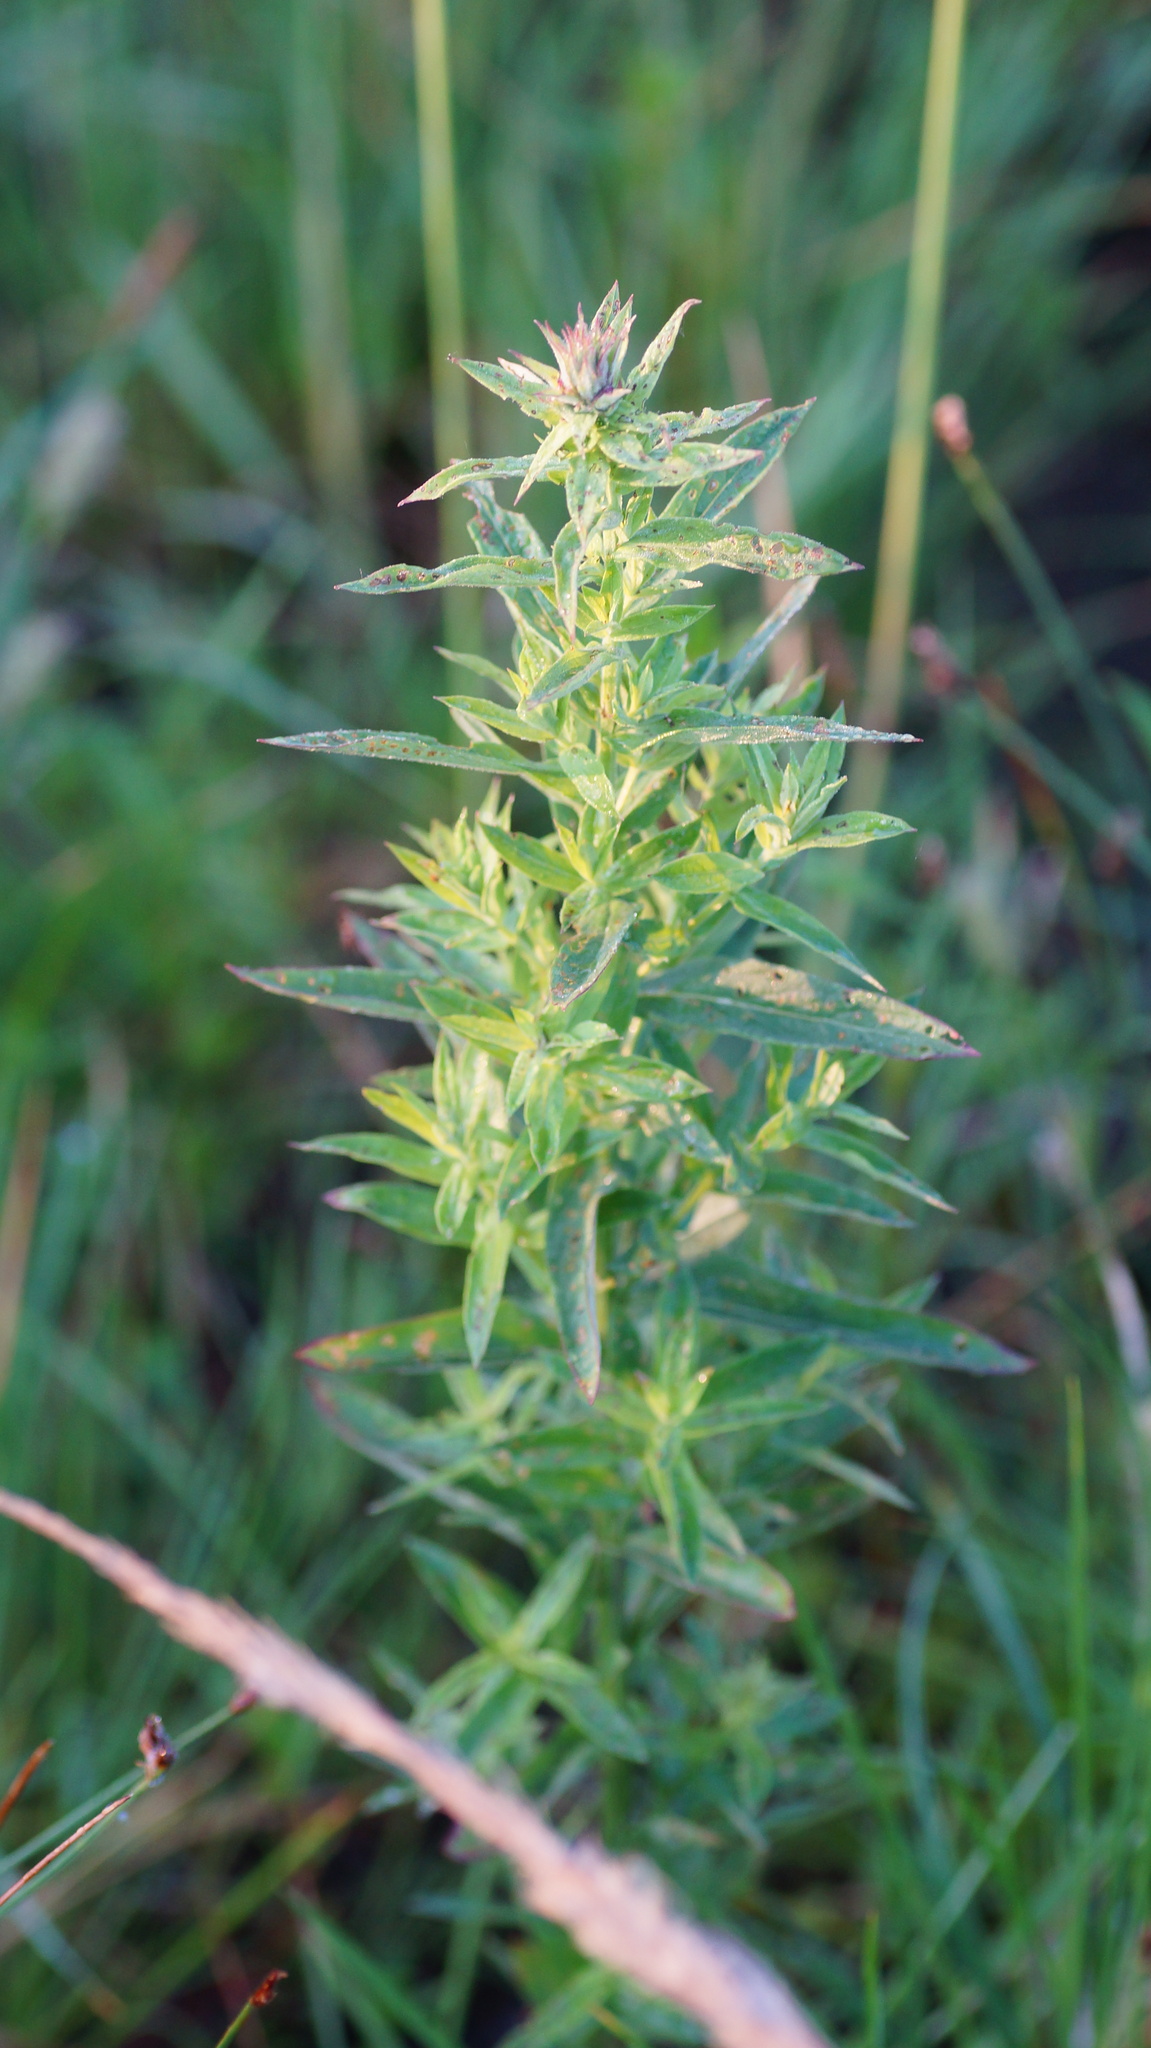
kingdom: Plantae
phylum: Tracheophyta
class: Magnoliopsida
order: Myrtales
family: Lythraceae
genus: Lythrum
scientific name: Lythrum salicaria
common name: Purple loosestrife
